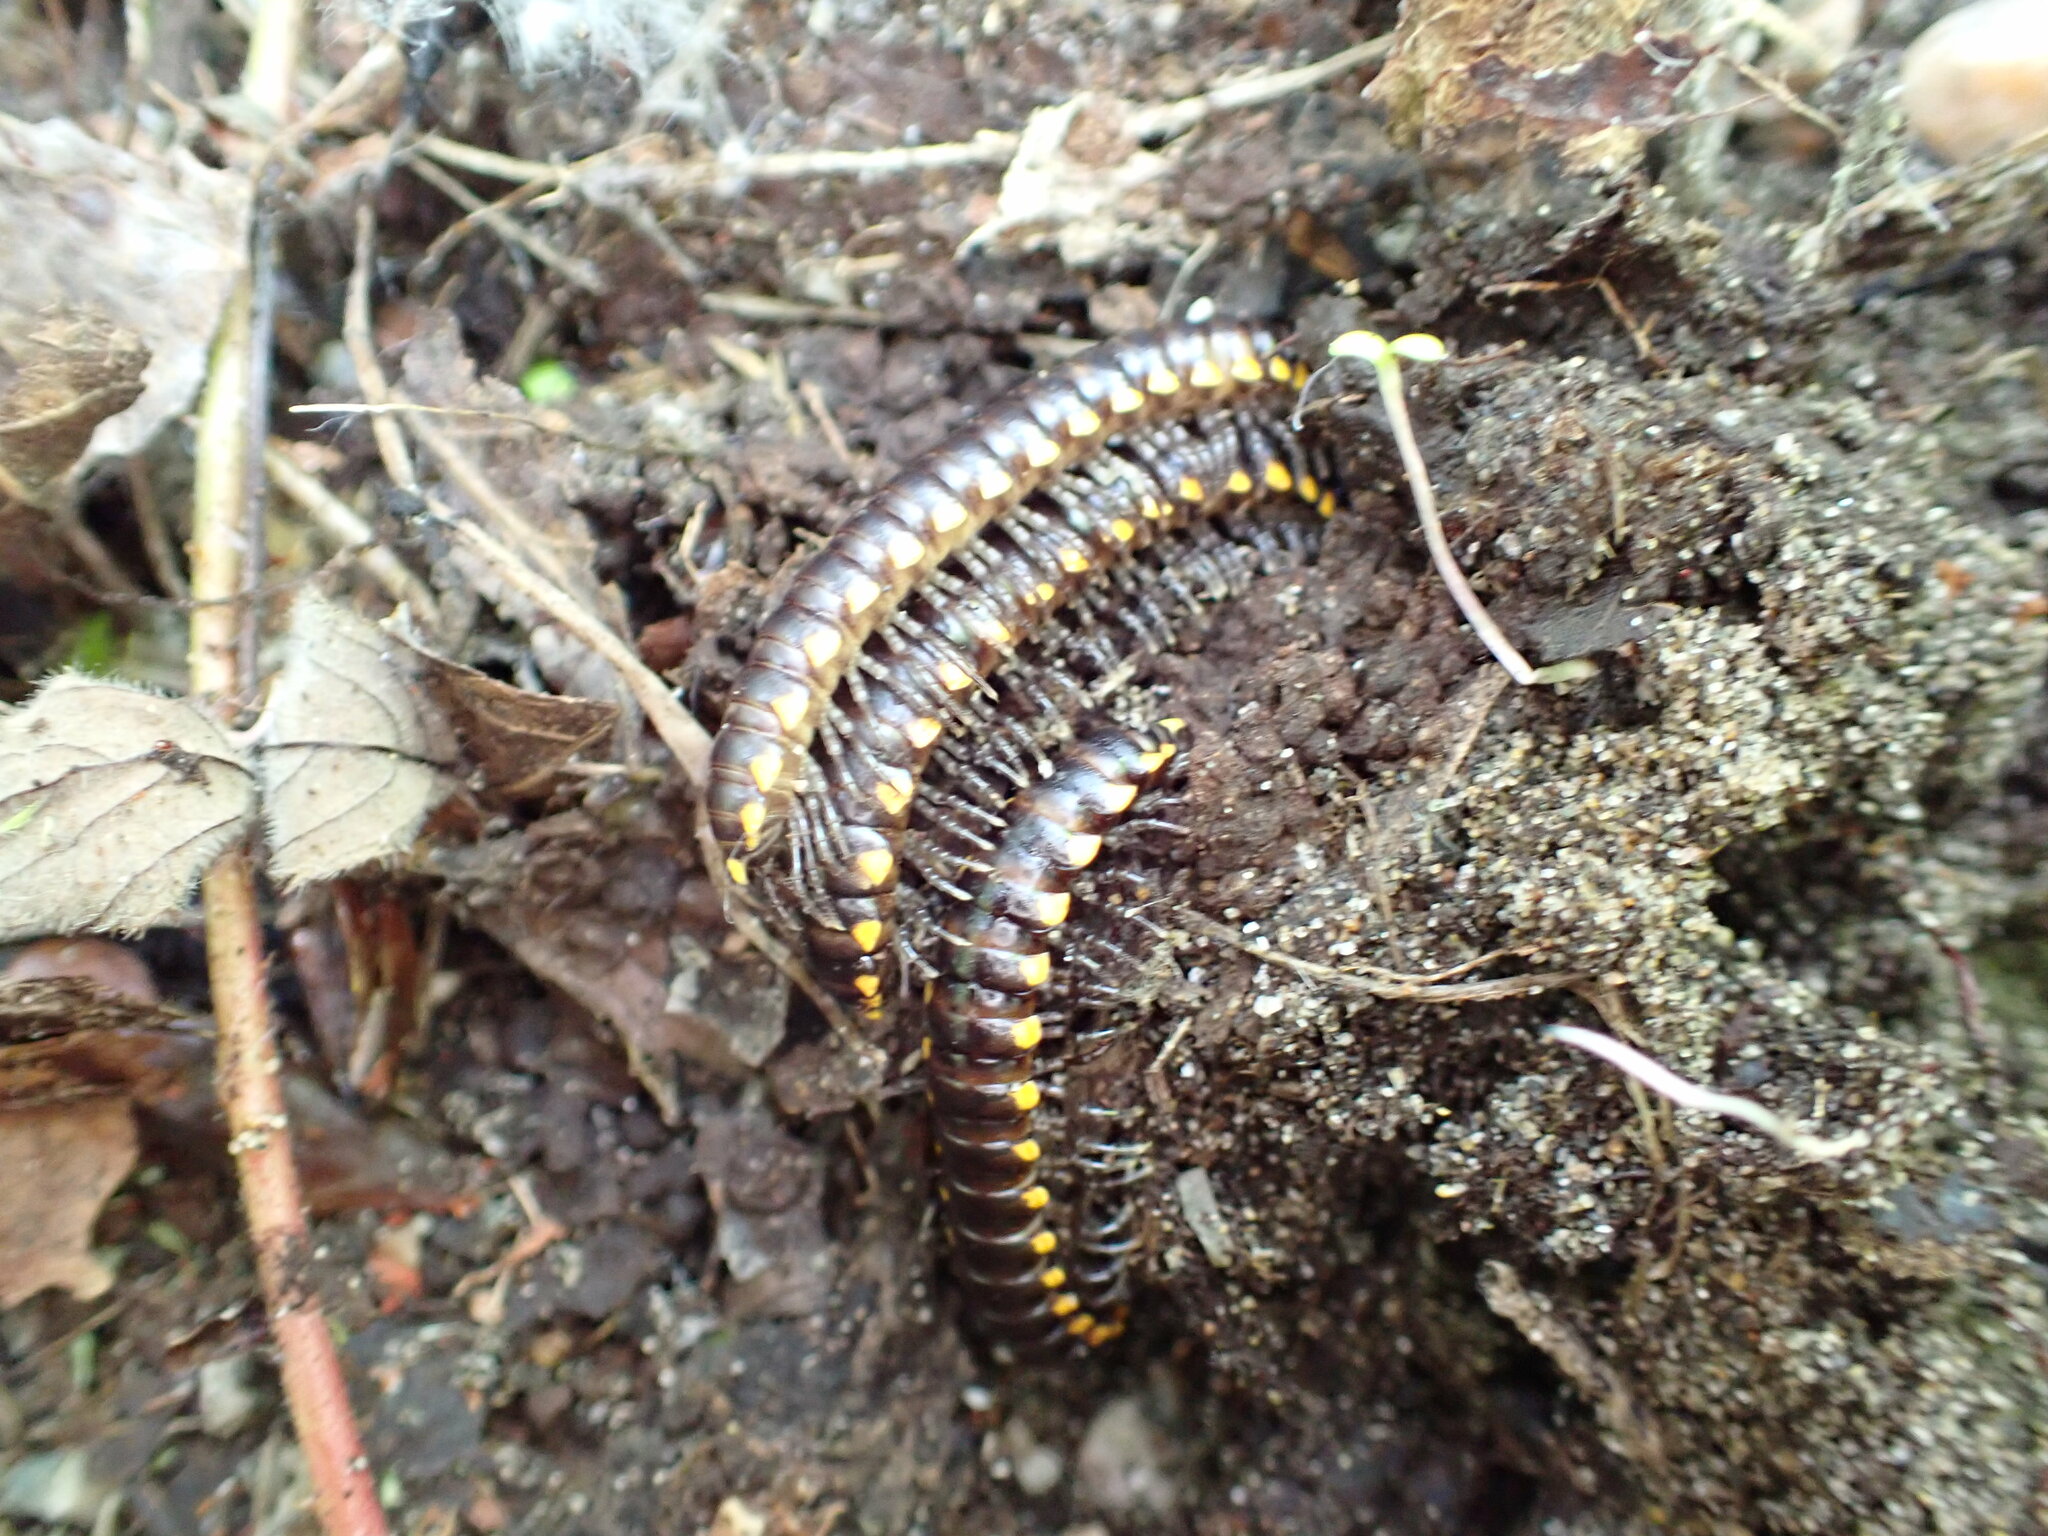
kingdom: Animalia
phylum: Arthropoda
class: Diplopoda
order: Polydesmida
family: Xystodesmidae
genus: Harpaphe
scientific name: Harpaphe haydeniana
